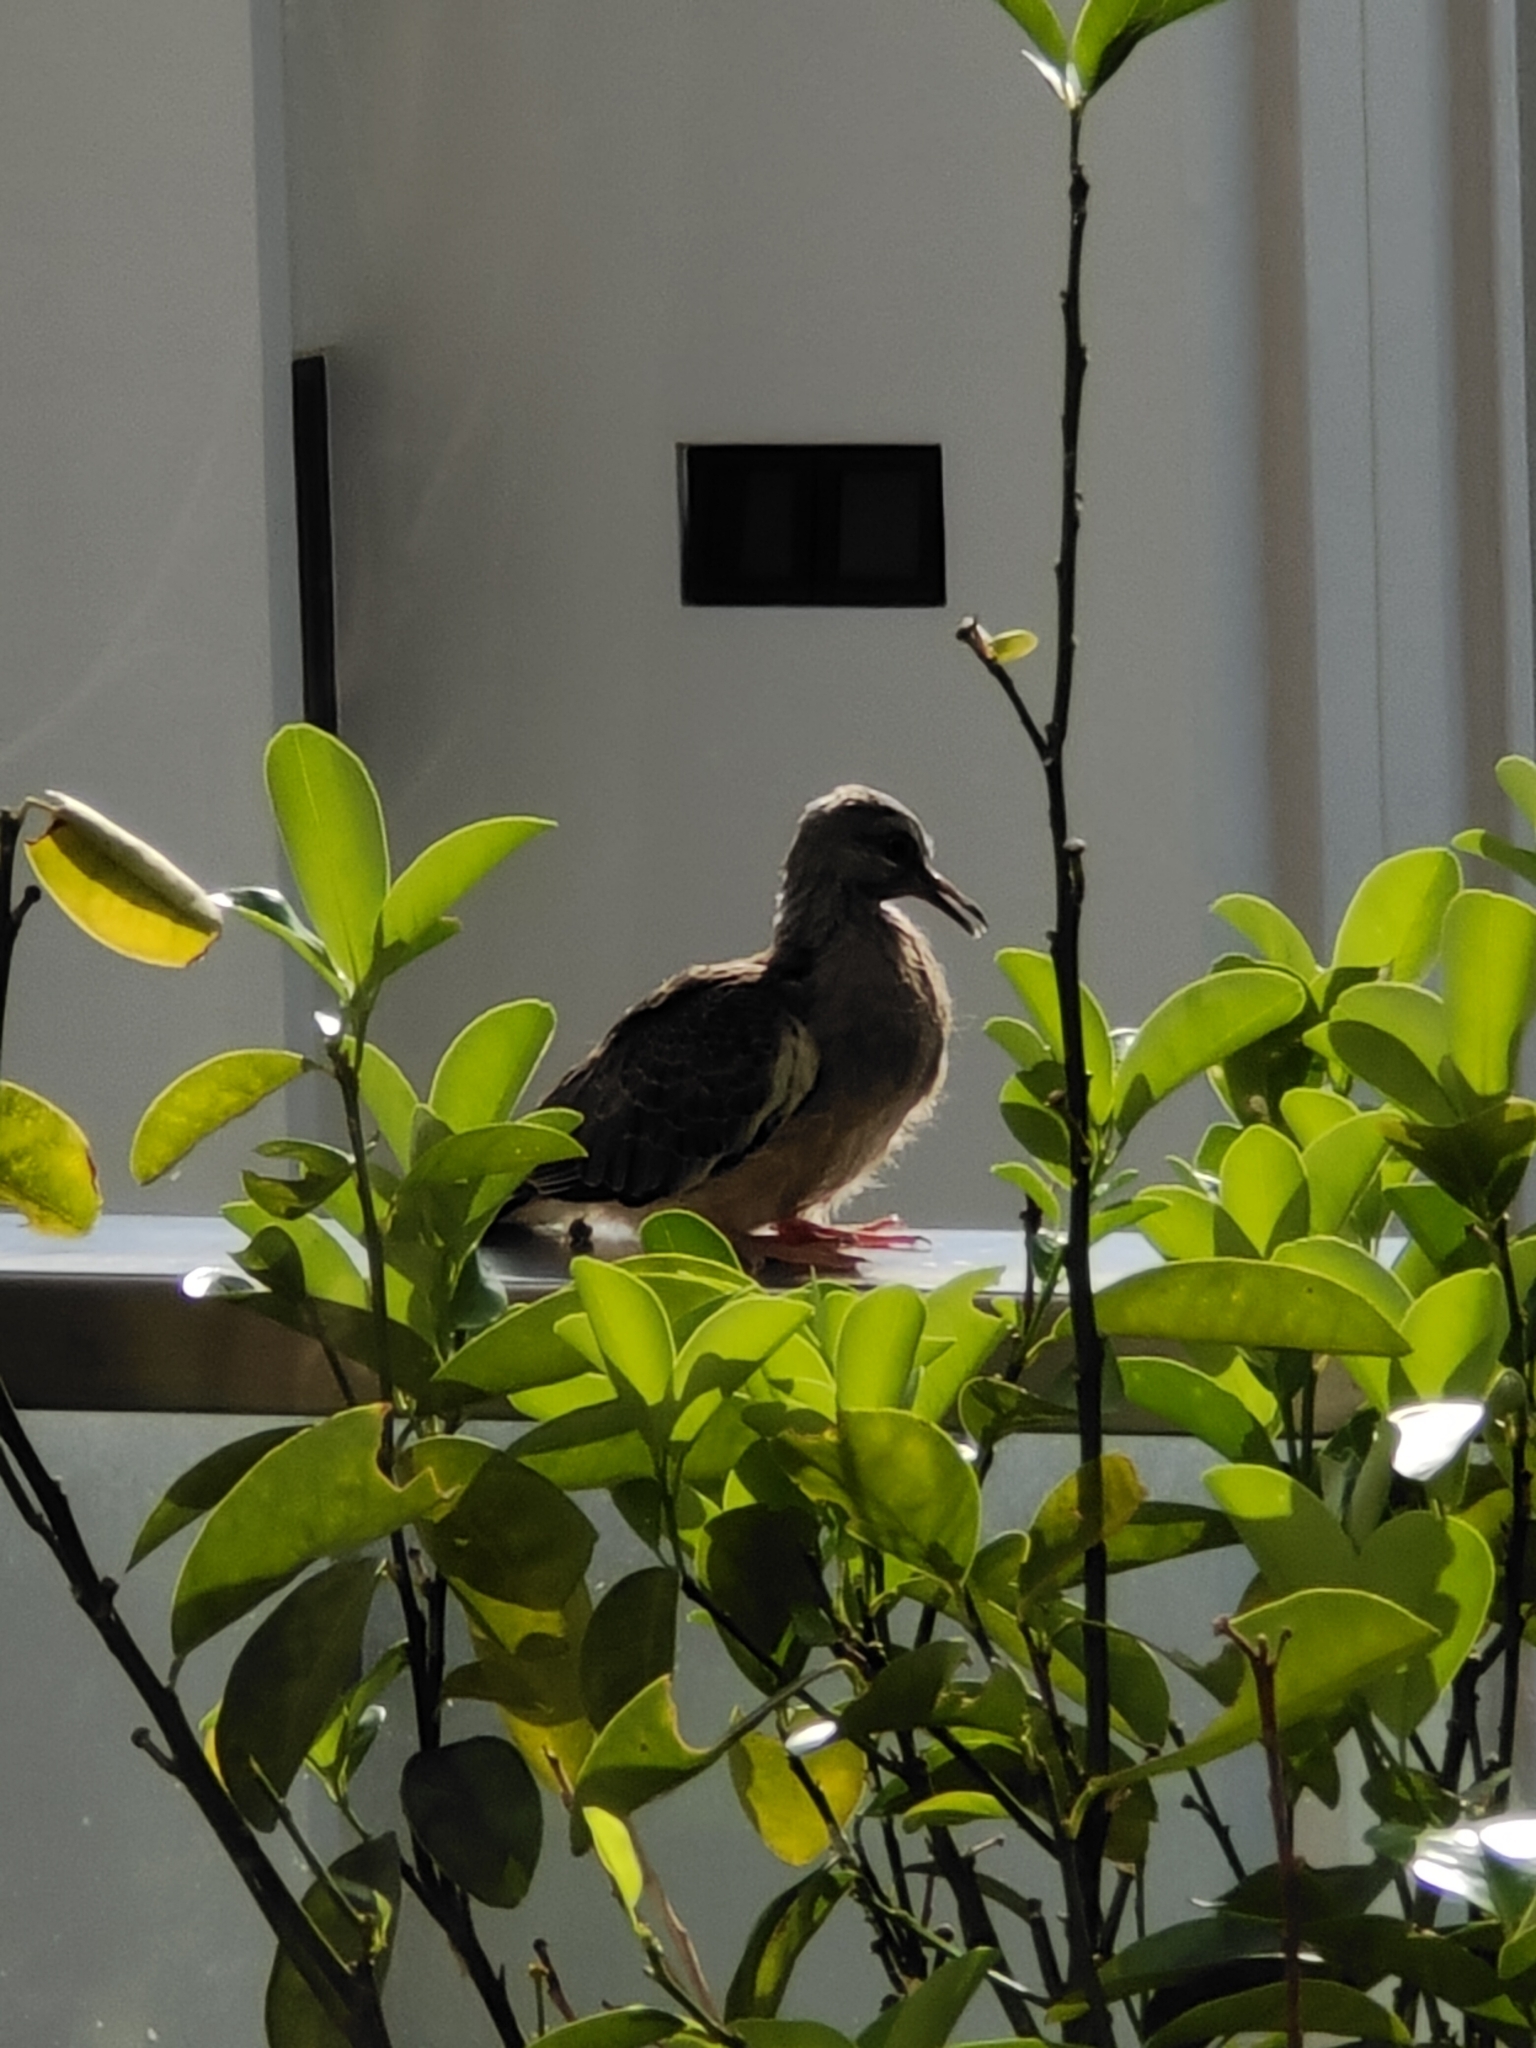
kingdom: Animalia
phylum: Chordata
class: Aves
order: Columbiformes
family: Columbidae
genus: Spilopelia
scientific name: Spilopelia chinensis
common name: Spotted dove
